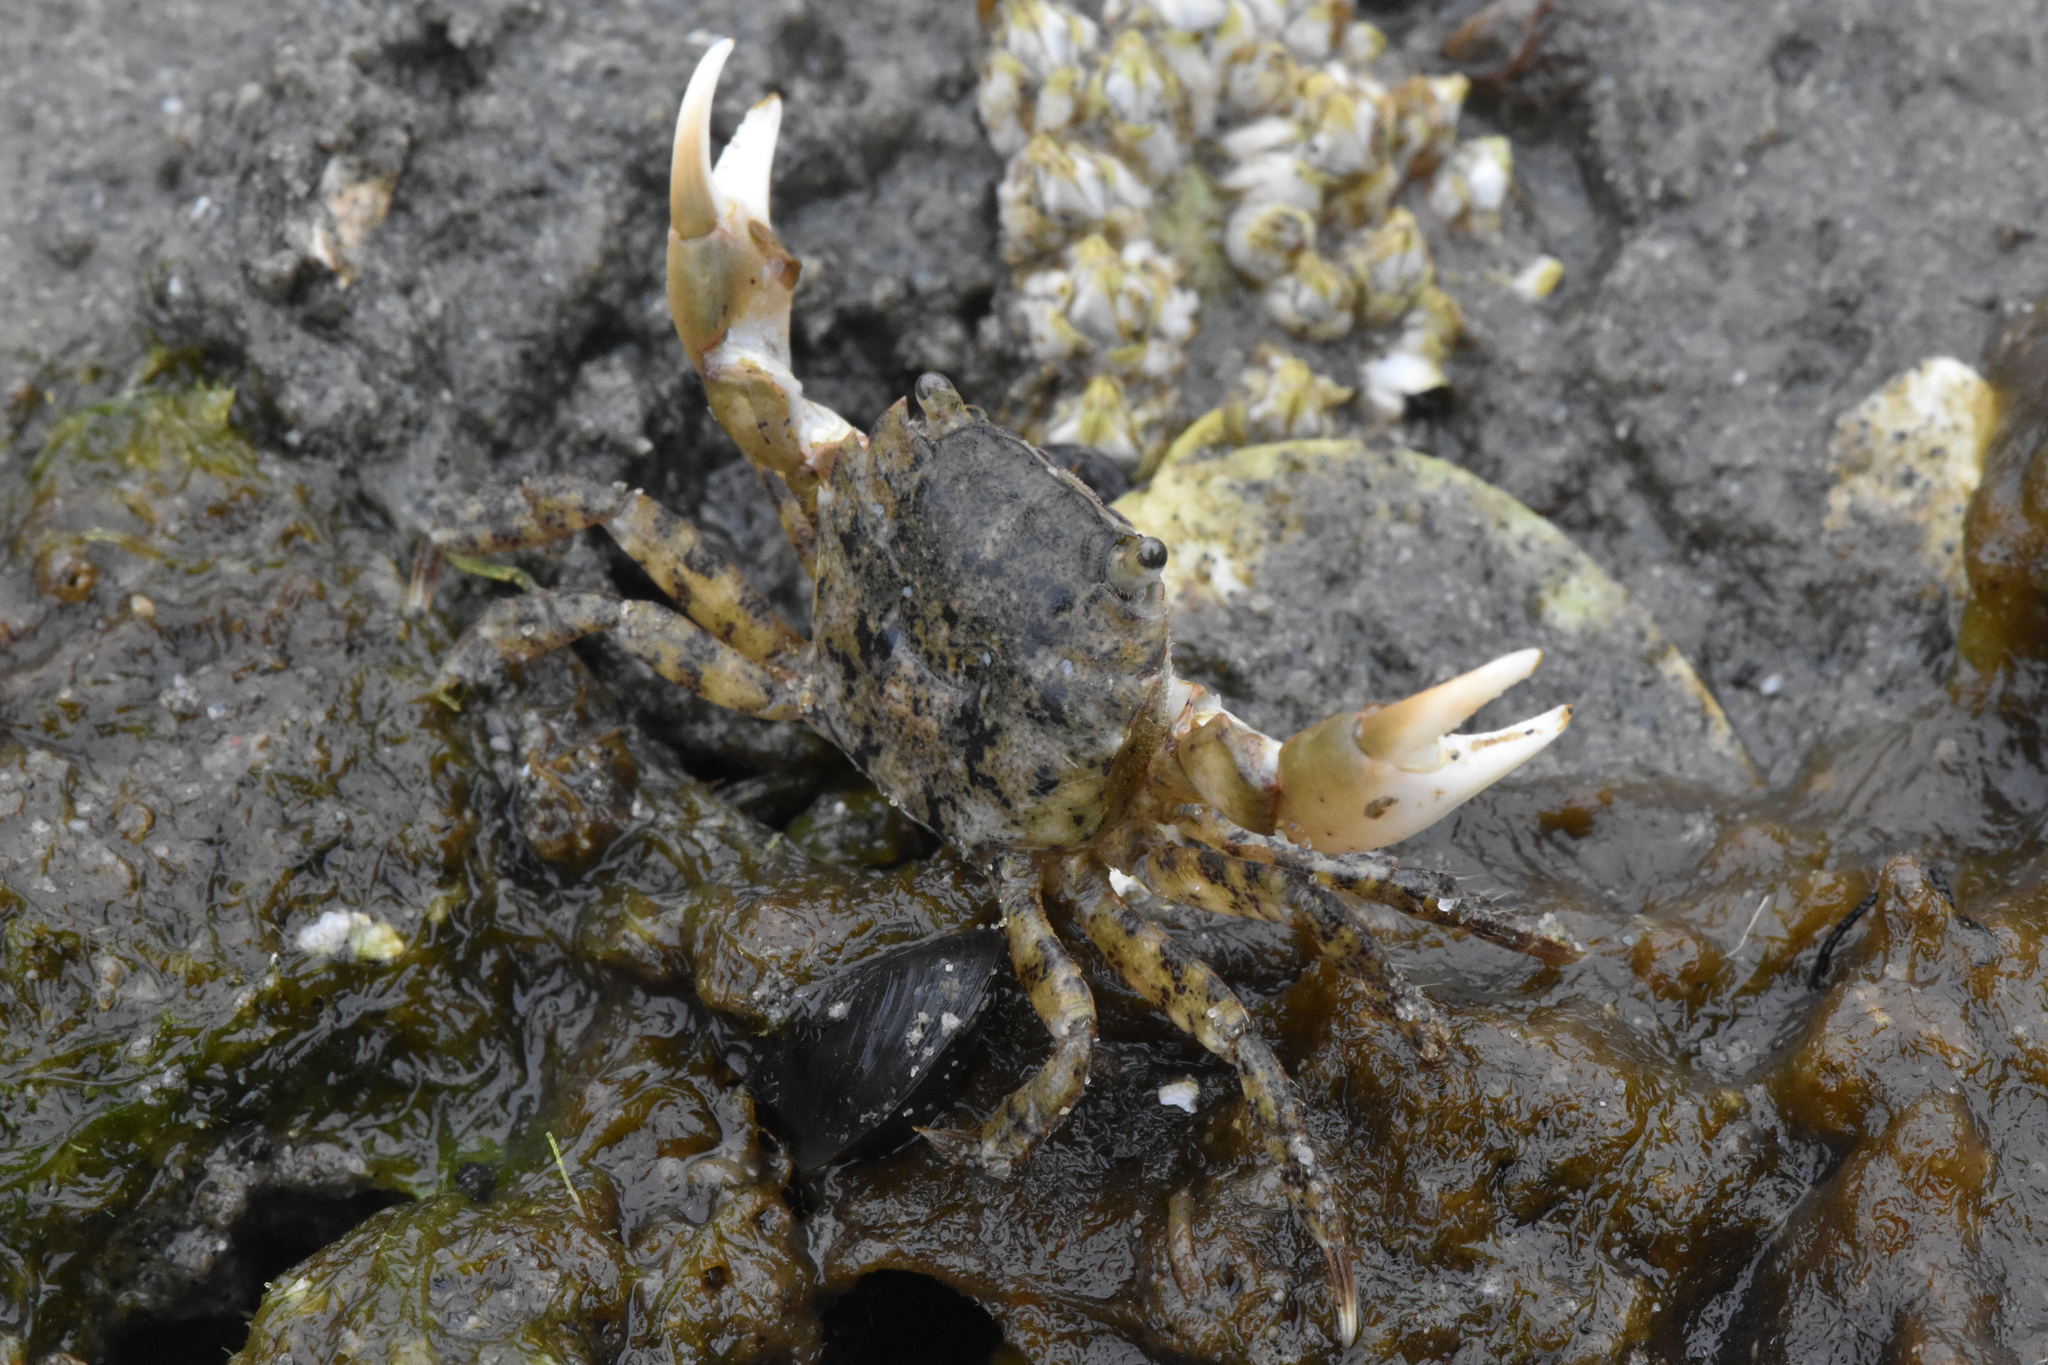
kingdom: Animalia
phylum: Arthropoda
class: Malacostraca
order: Decapoda
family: Varunidae
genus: Hemigrapsus
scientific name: Hemigrapsus oregonensis
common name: Yellow shore crab
